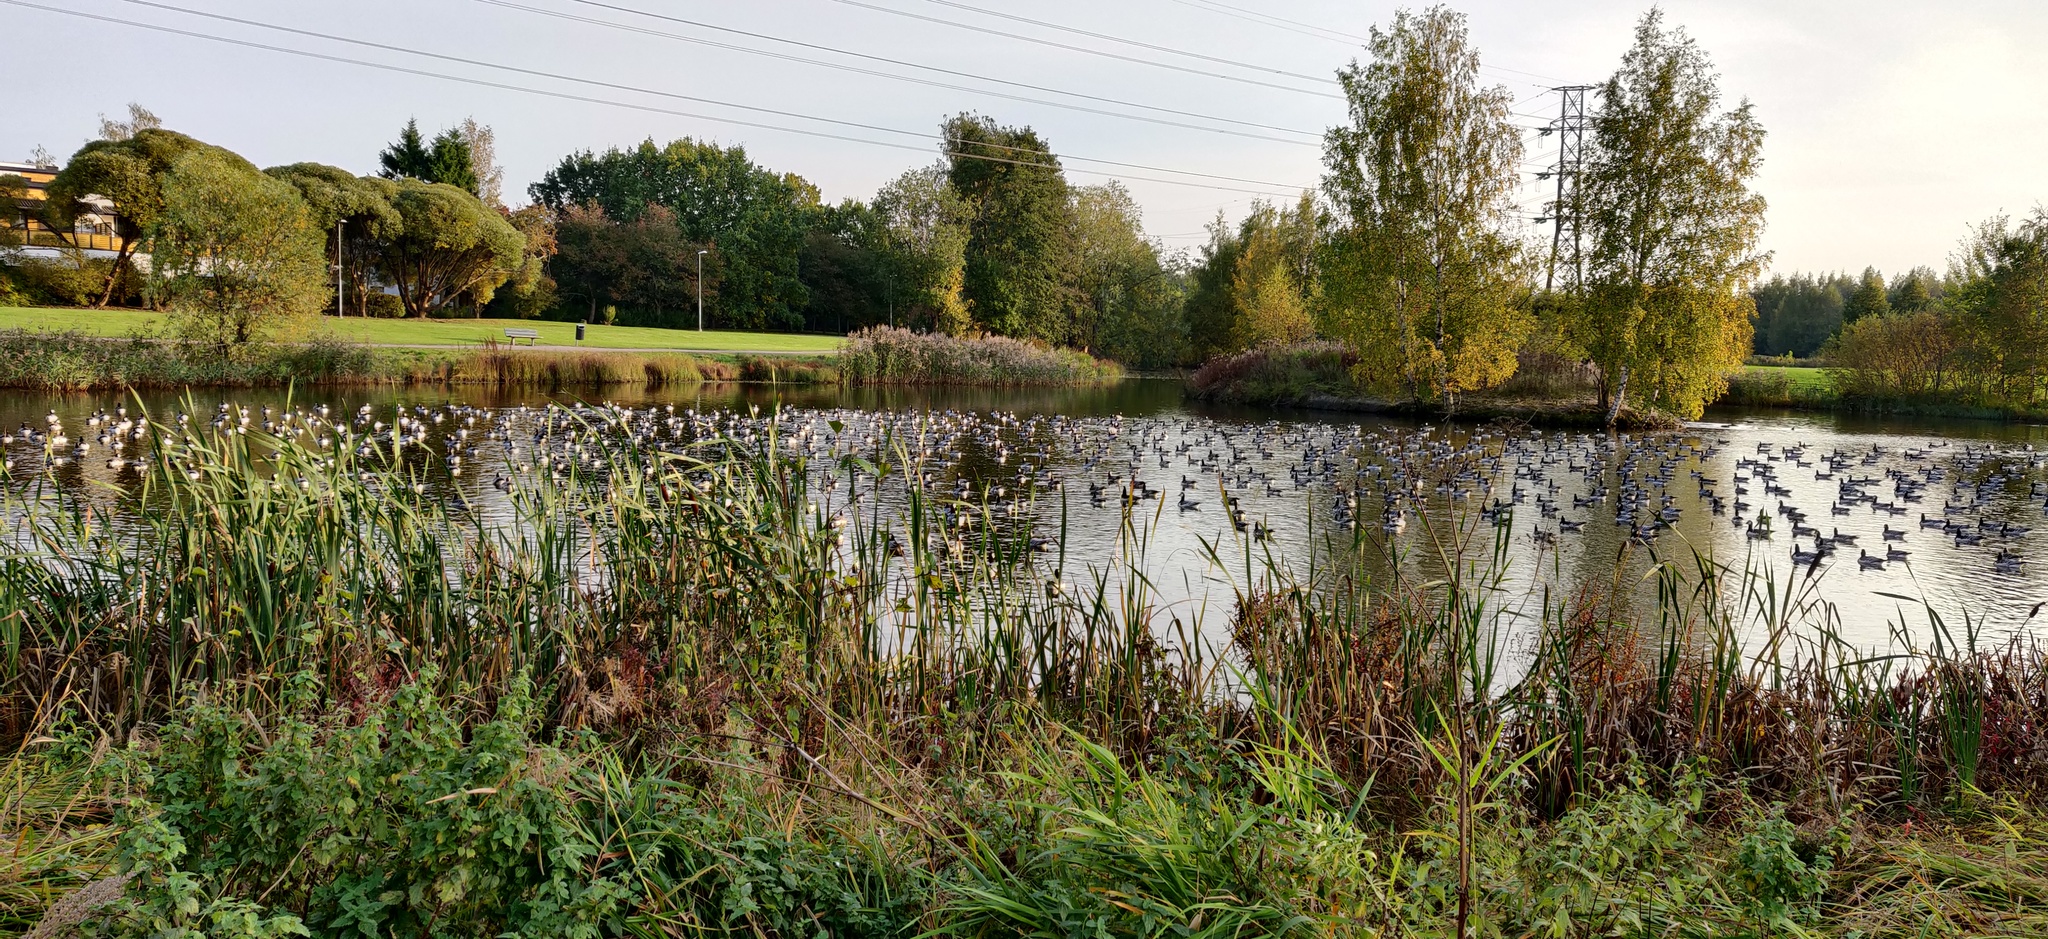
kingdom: Animalia
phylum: Chordata
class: Aves
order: Anseriformes
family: Anatidae
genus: Branta
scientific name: Branta leucopsis
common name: Barnacle goose
